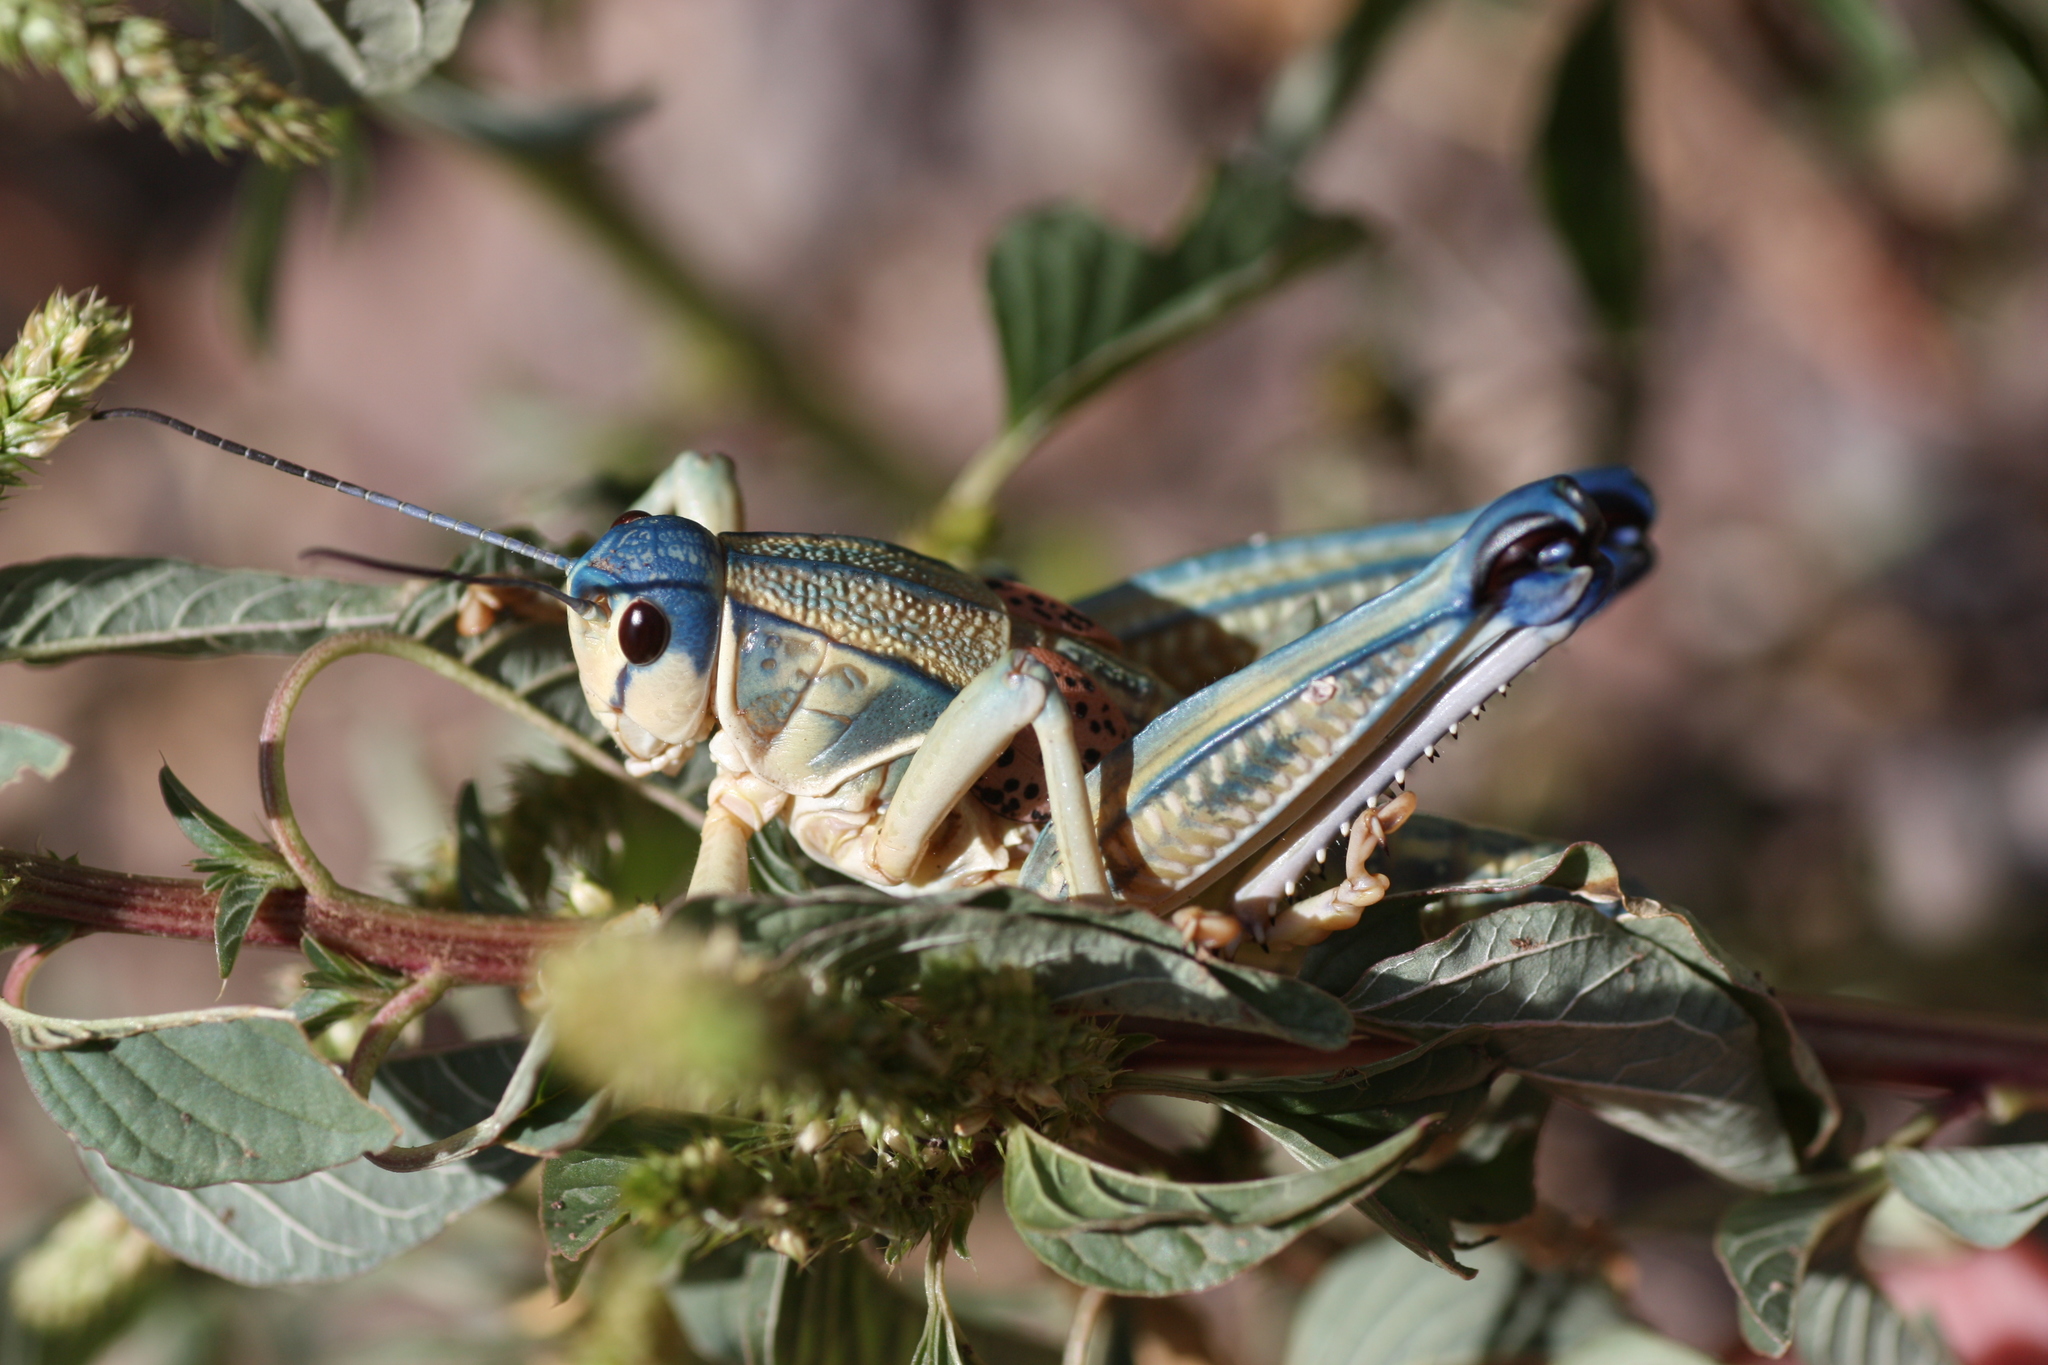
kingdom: Animalia
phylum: Arthropoda
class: Insecta
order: Orthoptera
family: Romaleidae
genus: Brachystola
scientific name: Brachystola magna
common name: Plains lubber grasshopper
